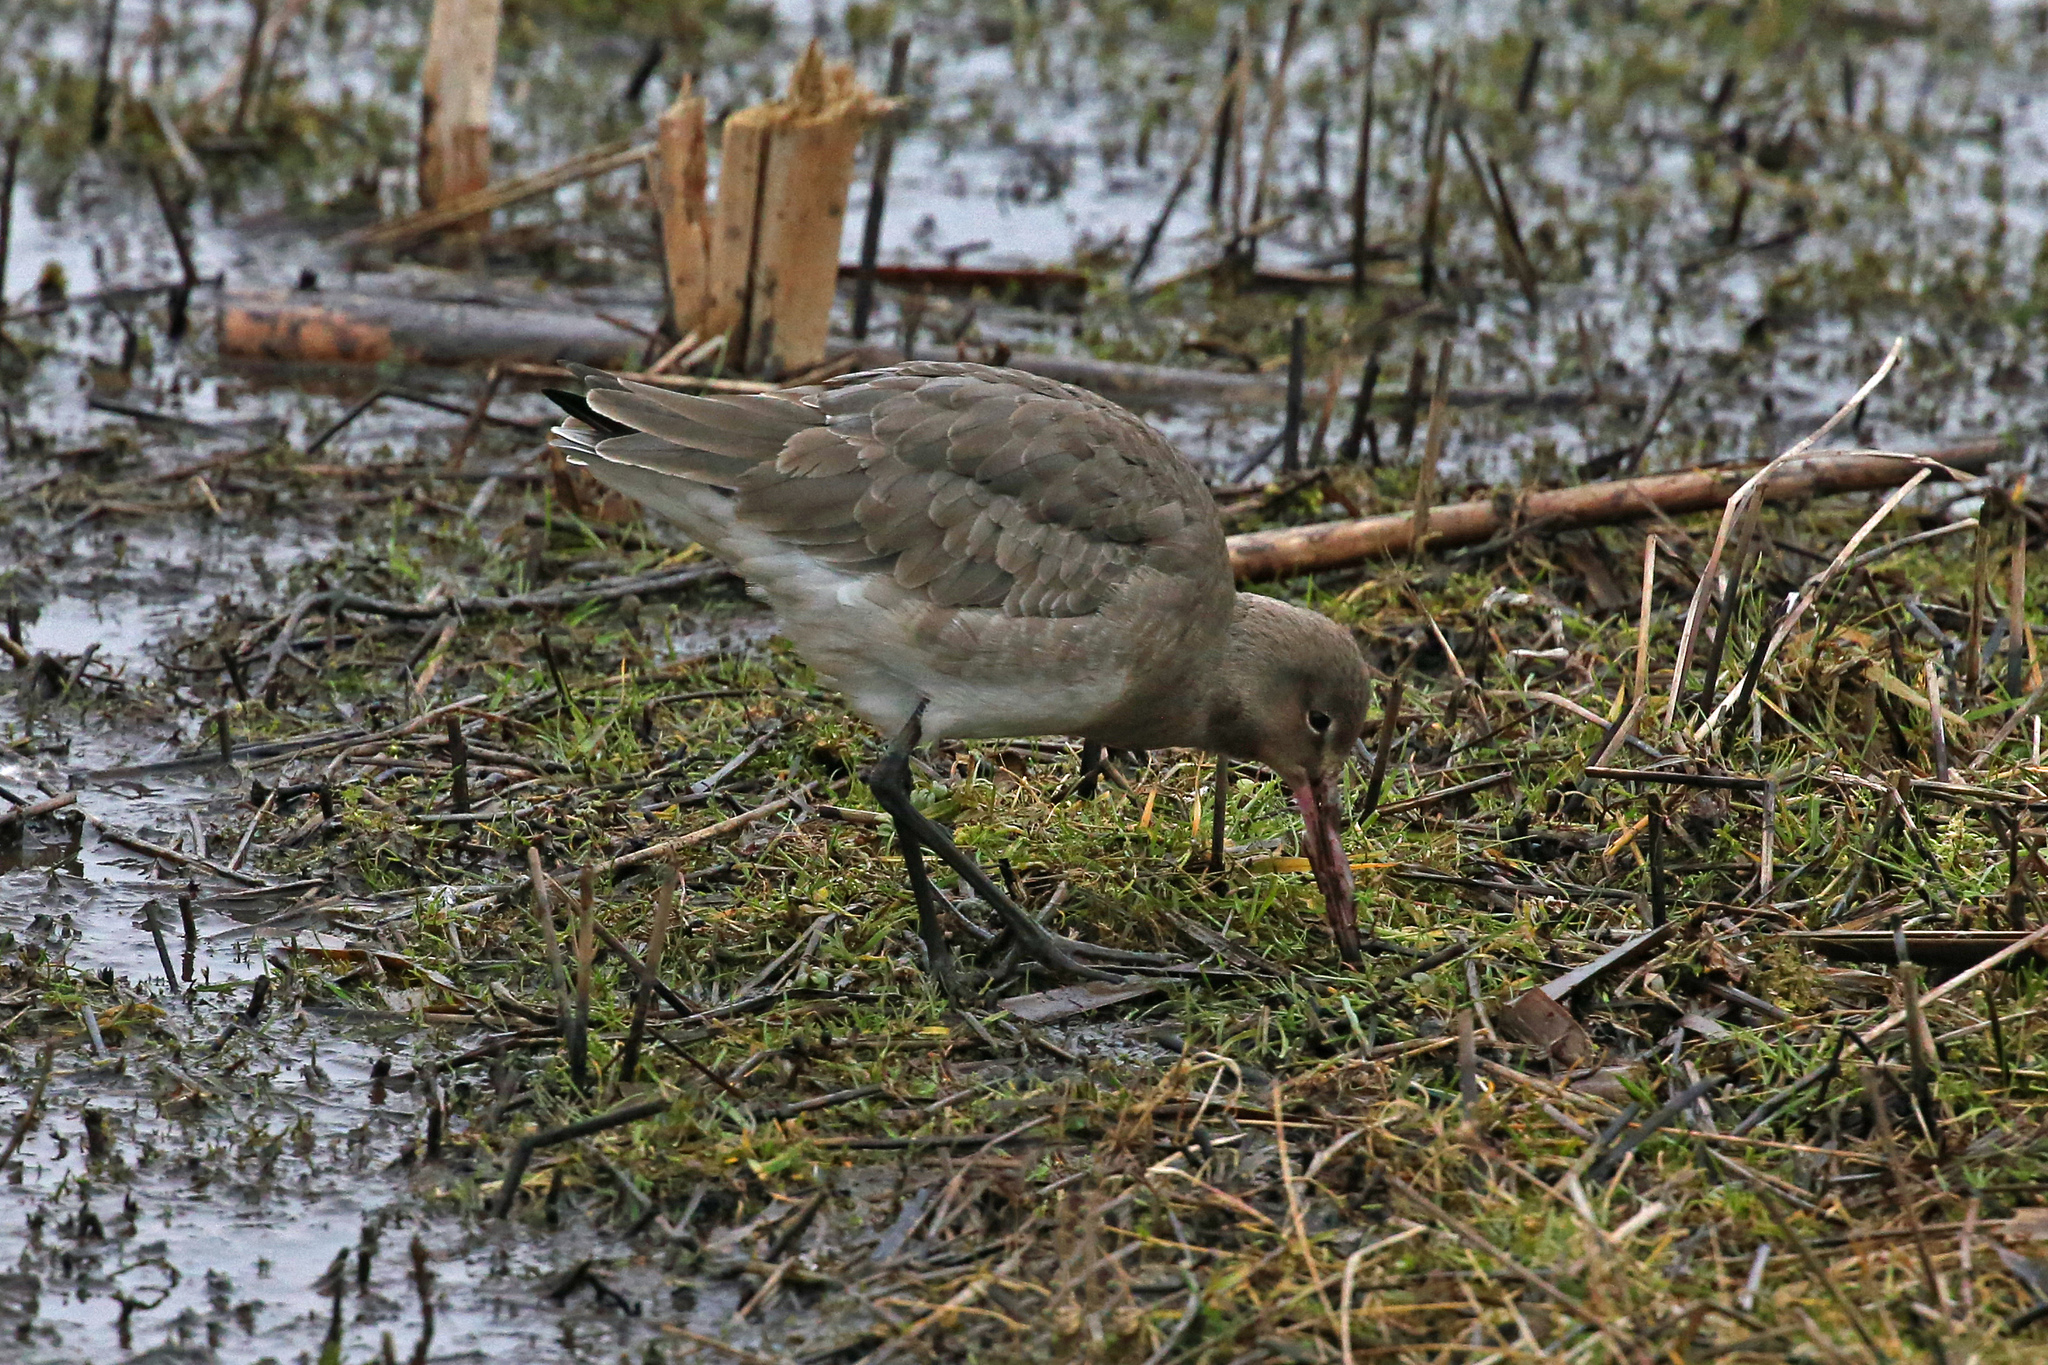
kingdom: Animalia
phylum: Chordata
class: Aves
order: Charadriiformes
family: Scolopacidae
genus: Limosa
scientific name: Limosa limosa
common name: Black-tailed godwit
